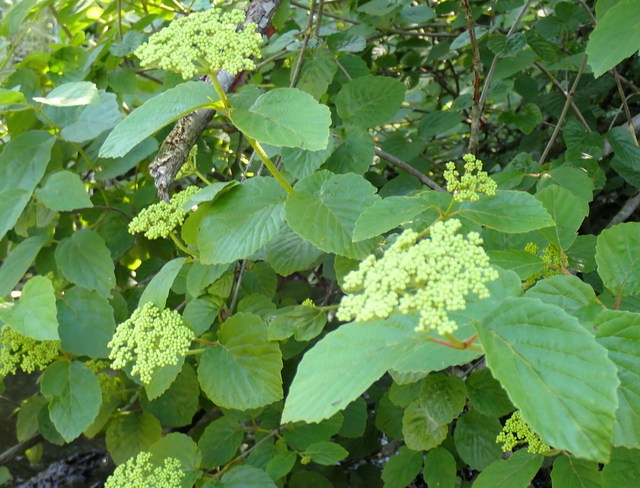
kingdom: Plantae
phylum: Tracheophyta
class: Magnoliopsida
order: Dipsacales
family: Viburnaceae
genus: Viburnum
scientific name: Viburnum scabrellum
